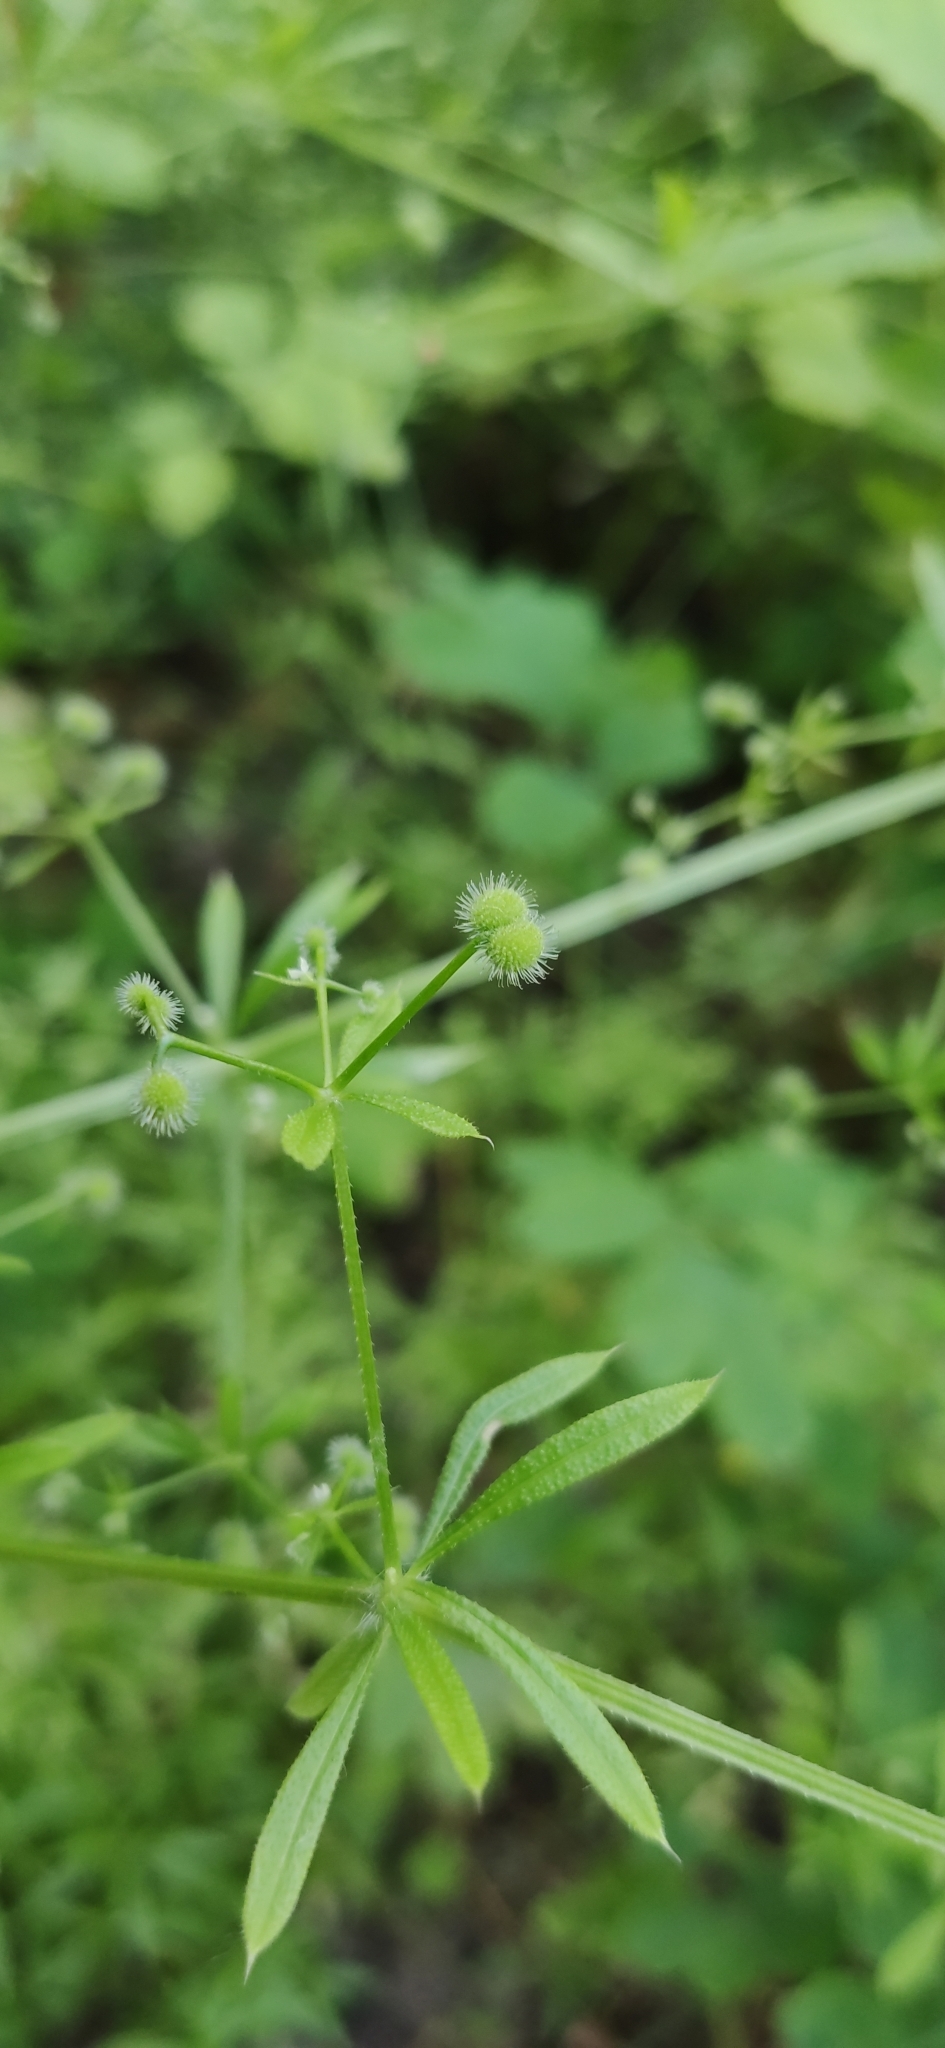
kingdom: Plantae
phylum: Tracheophyta
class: Magnoliopsida
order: Gentianales
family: Rubiaceae
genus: Galium
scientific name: Galium aparine
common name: Cleavers
